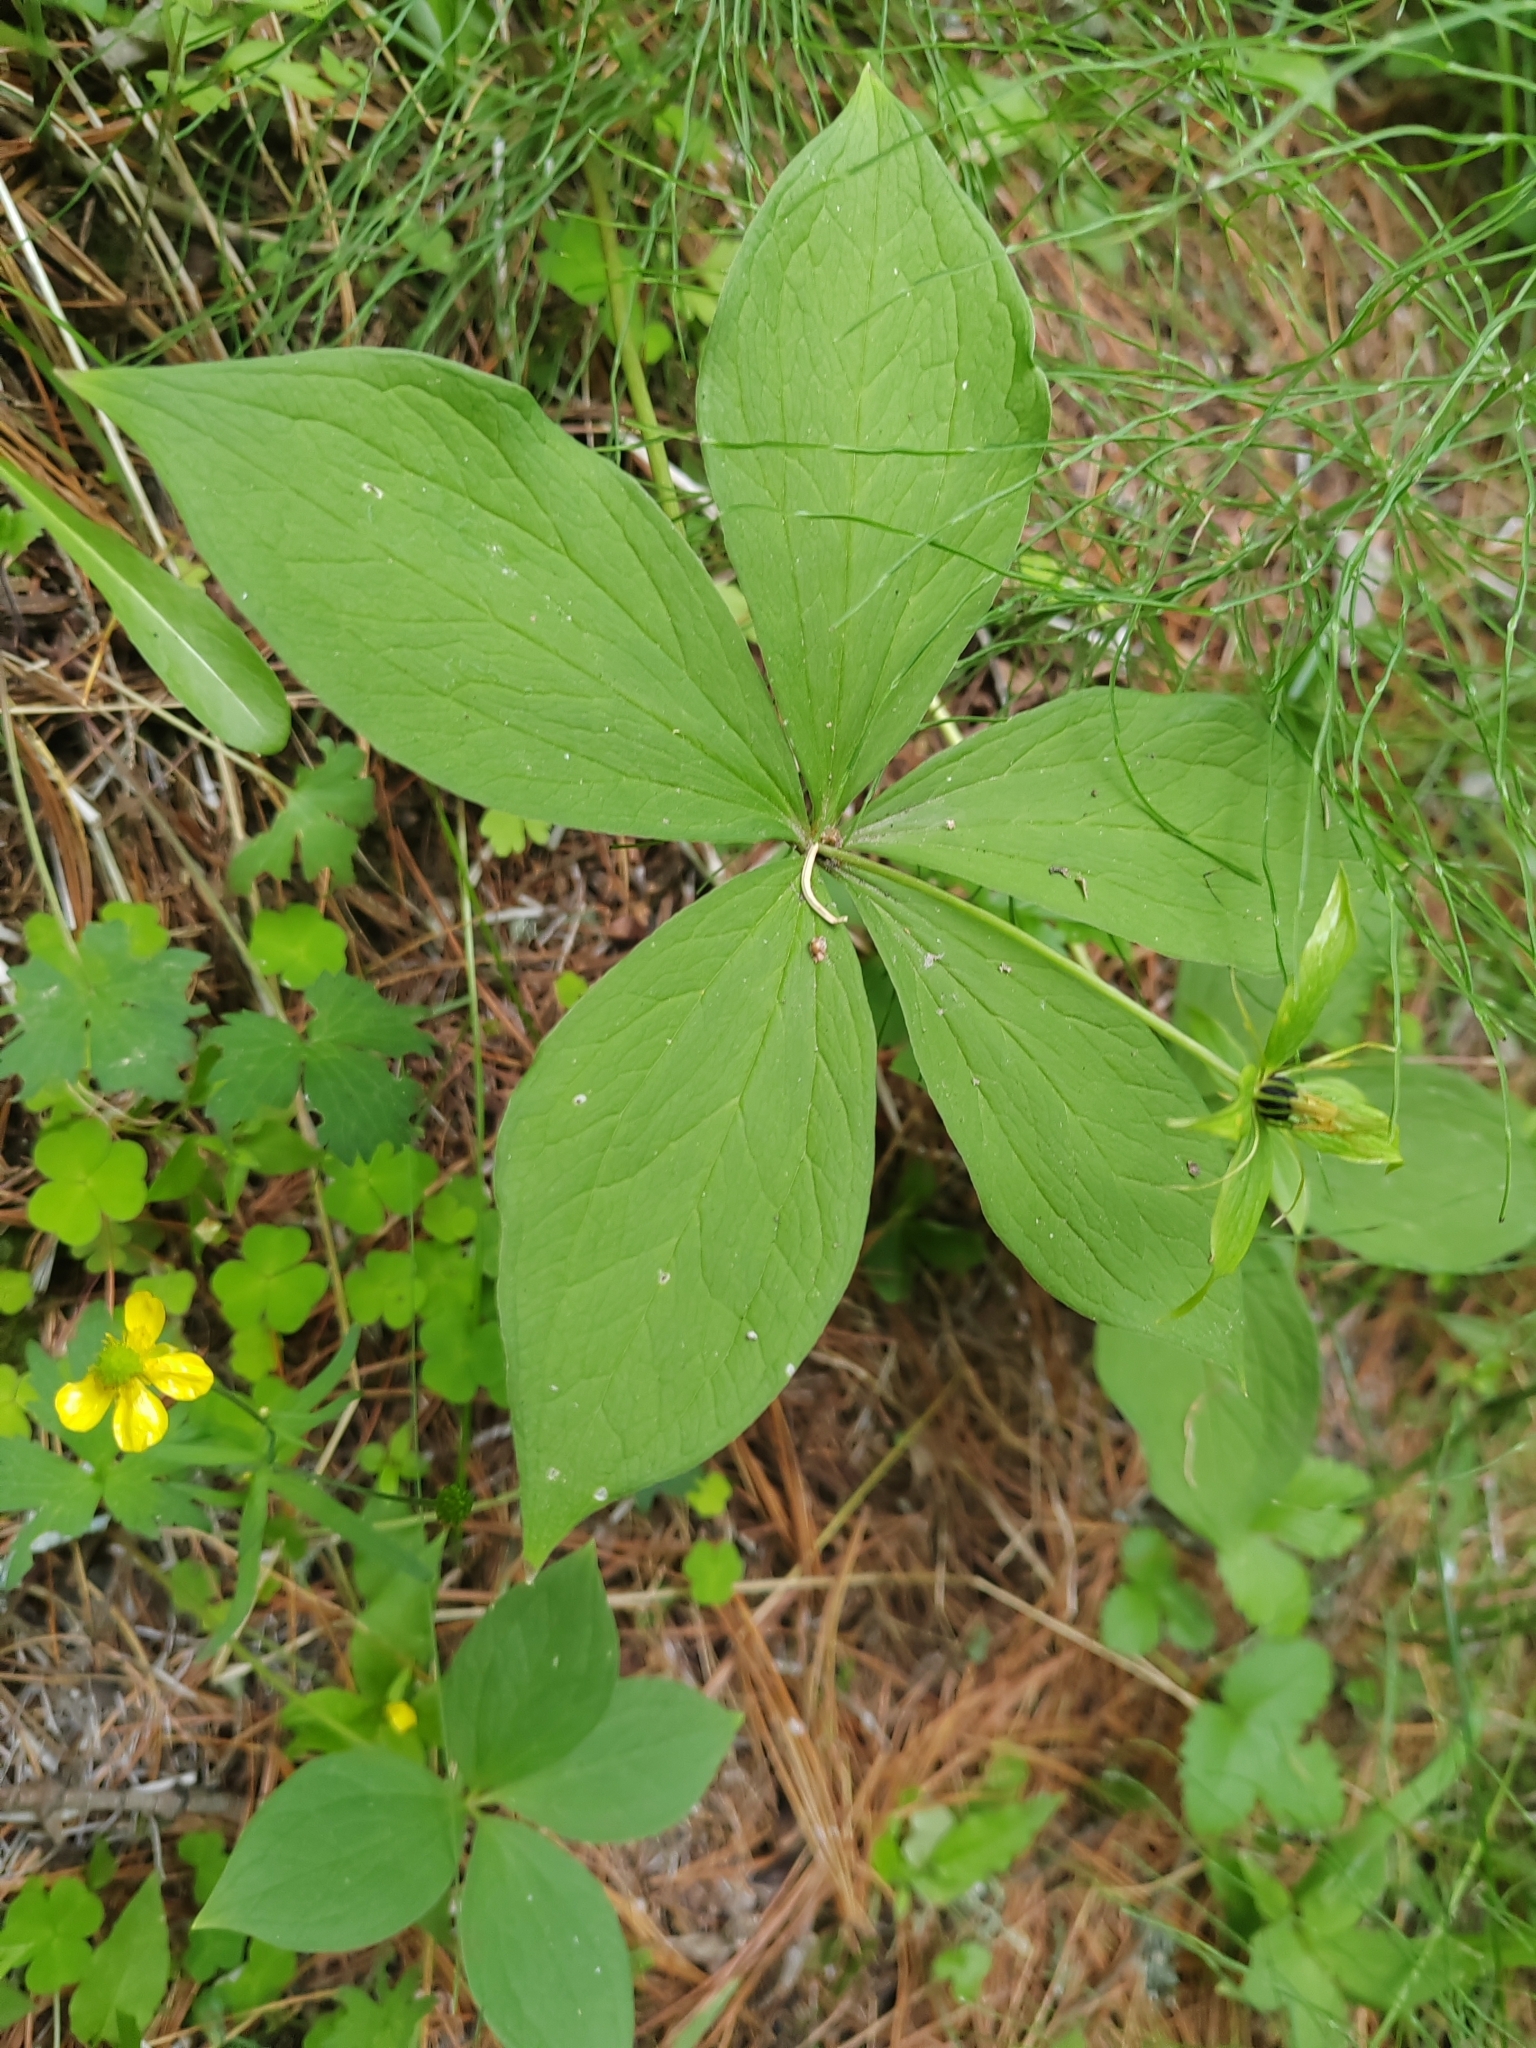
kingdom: Plantae
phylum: Tracheophyta
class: Liliopsida
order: Liliales
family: Melanthiaceae
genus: Paris
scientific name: Paris quadrifolia
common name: Herb-paris
